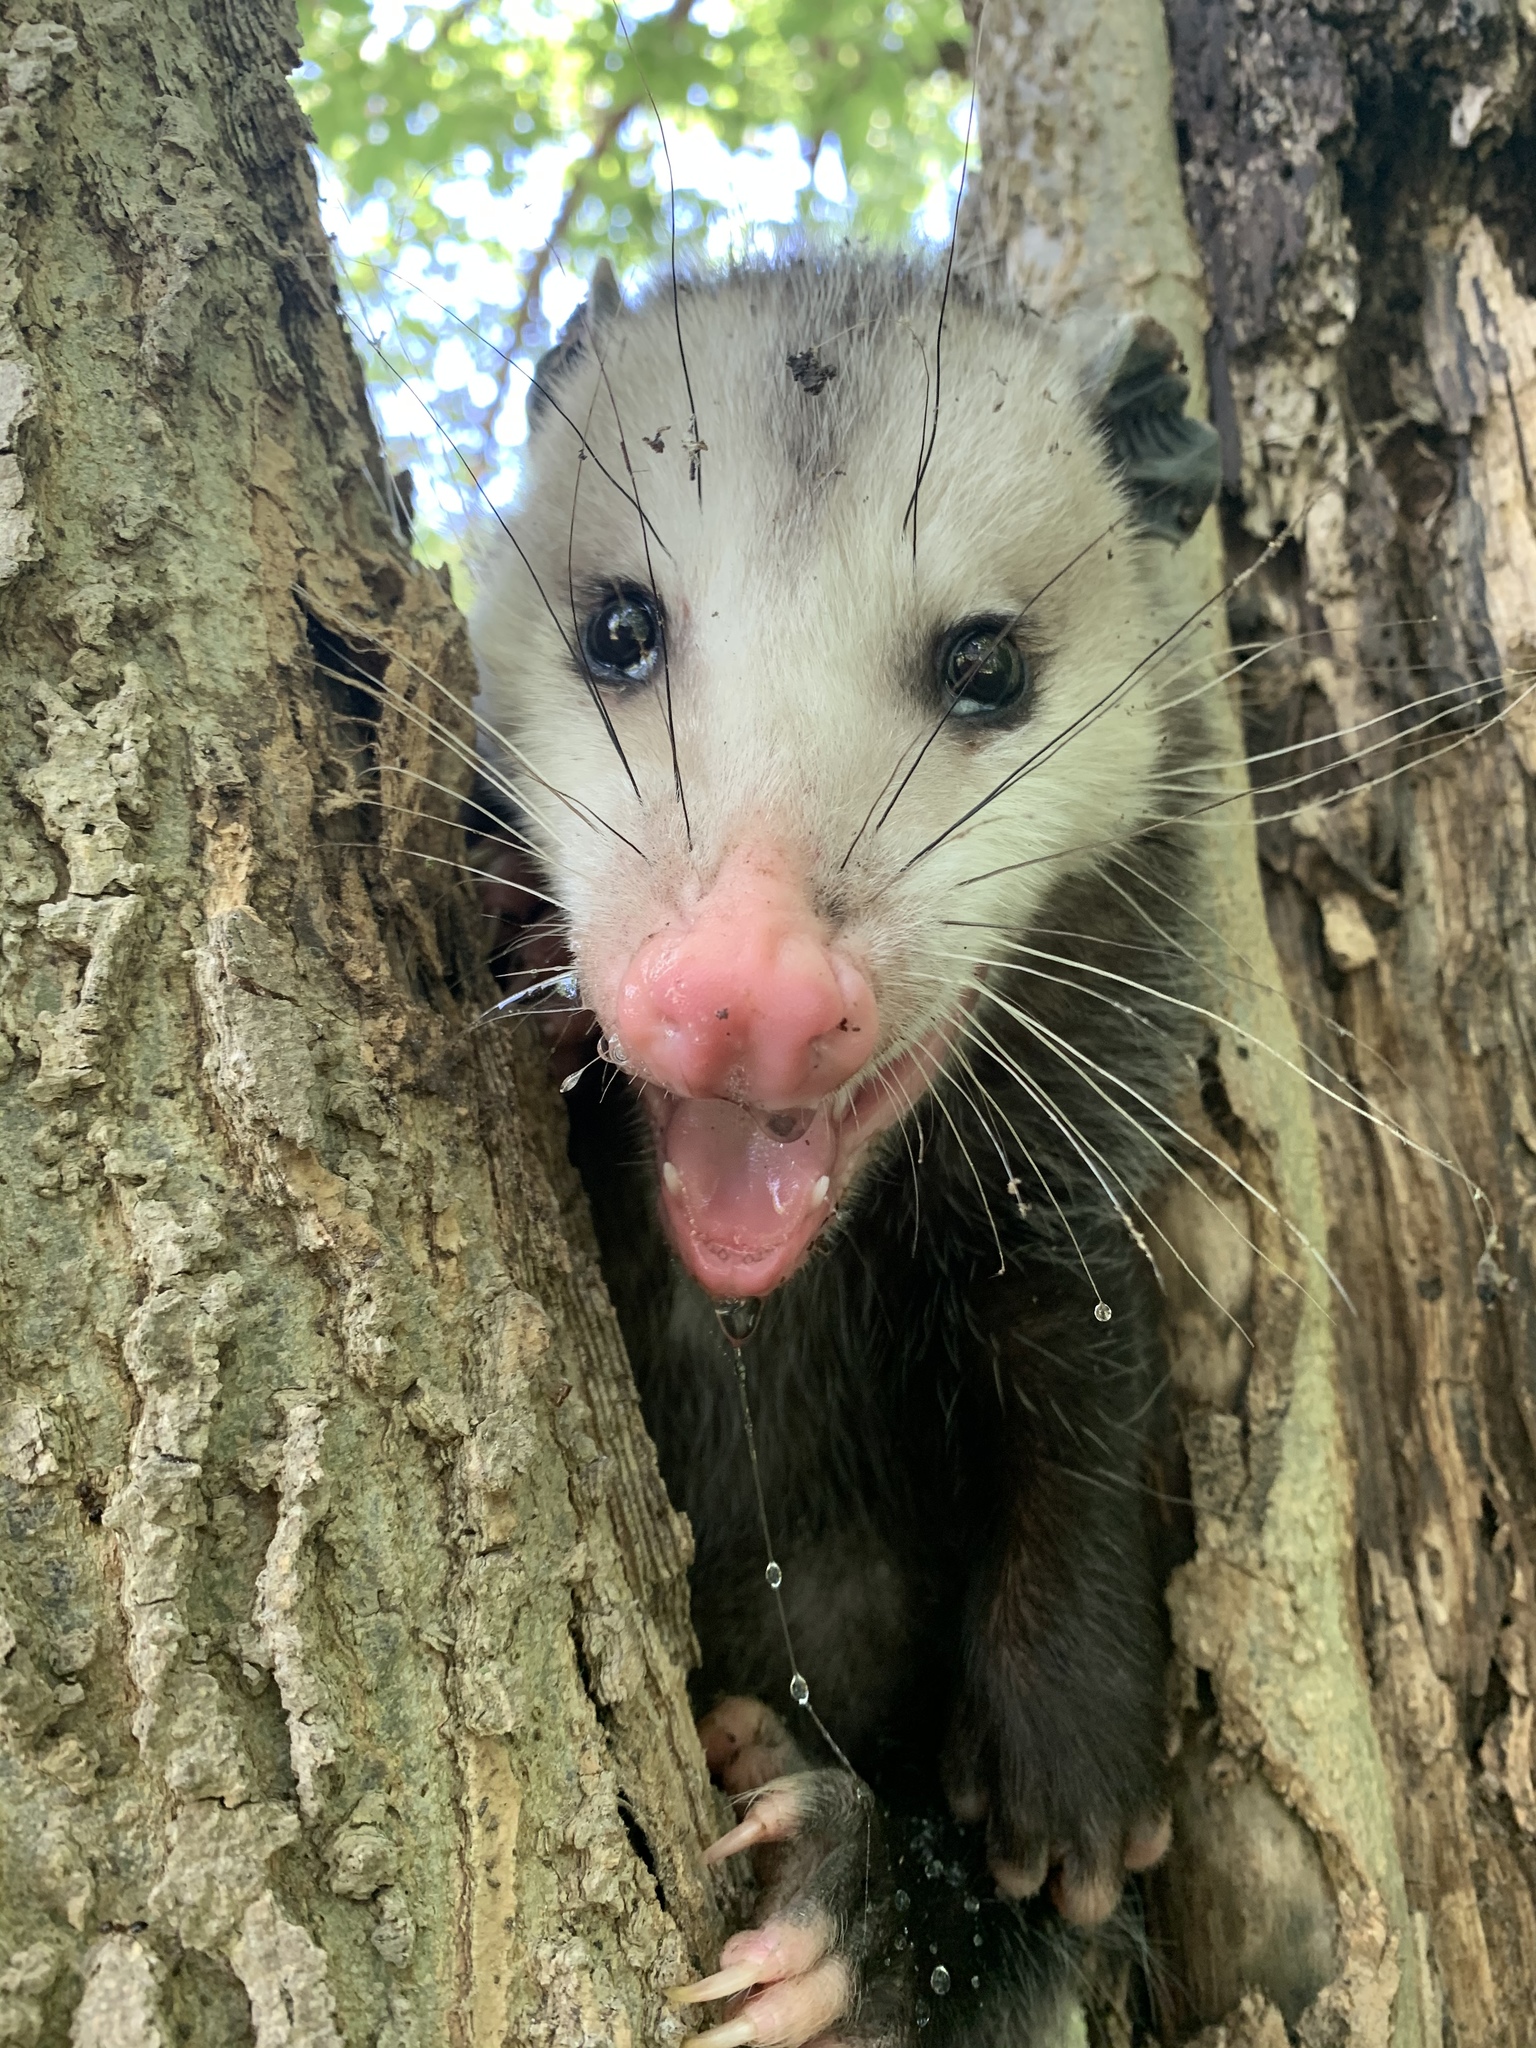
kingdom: Animalia
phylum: Chordata
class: Mammalia
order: Didelphimorphia
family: Didelphidae
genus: Didelphis
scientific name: Didelphis virginiana
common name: Virginia opossum
